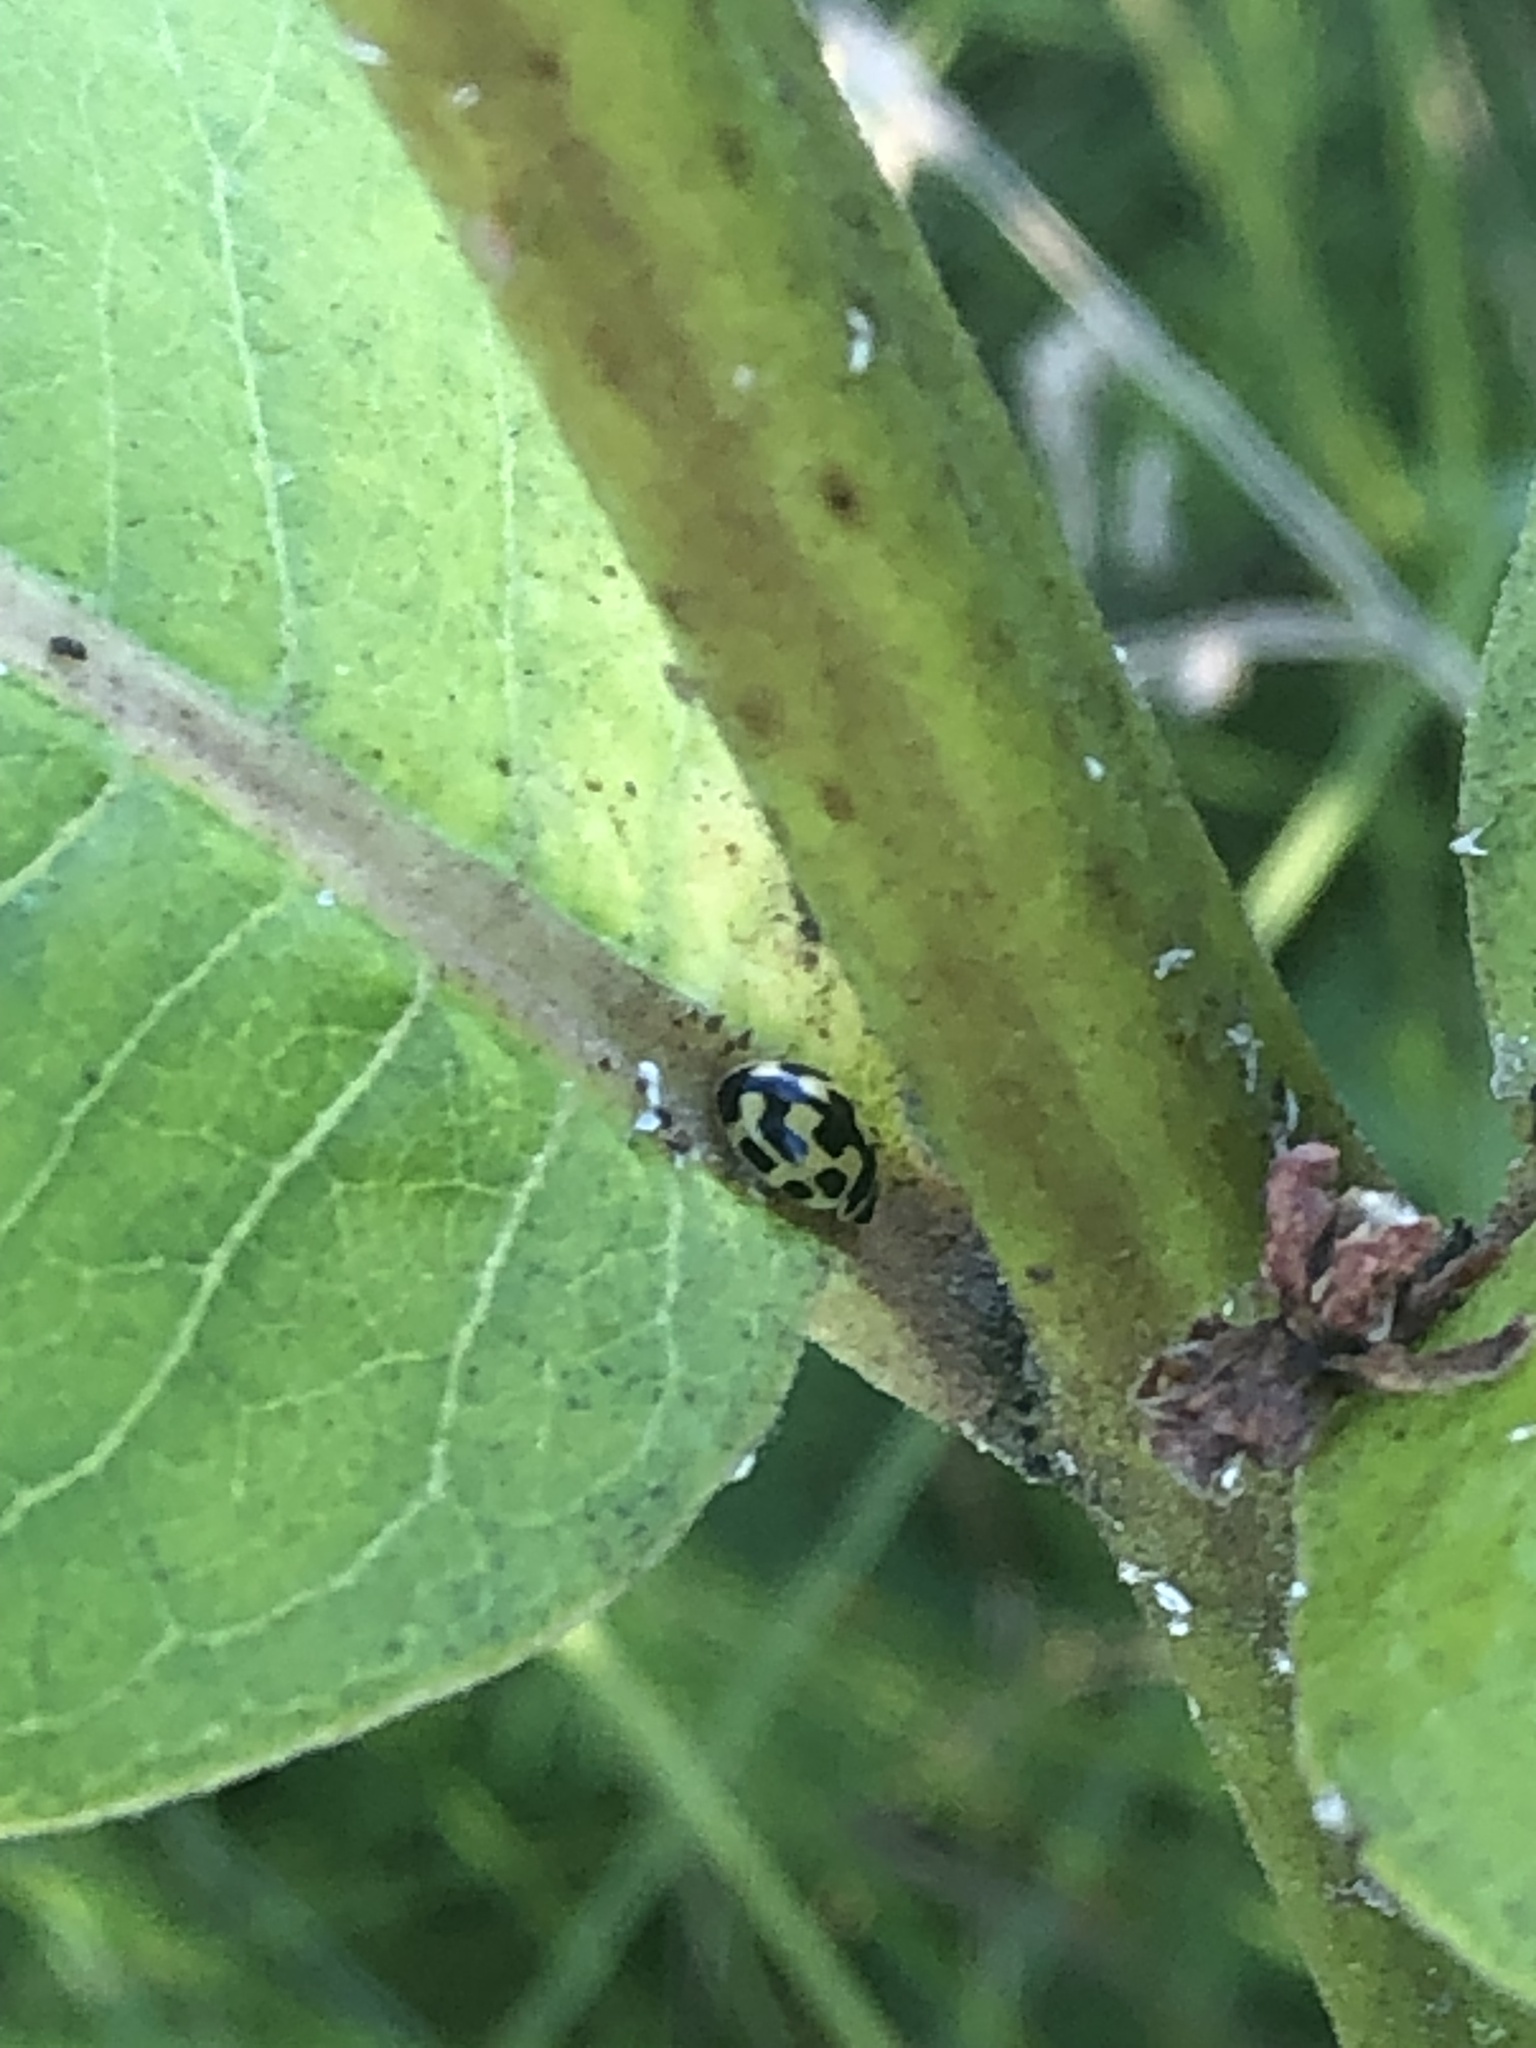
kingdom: Animalia
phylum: Arthropoda
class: Insecta
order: Coleoptera
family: Coccinellidae
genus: Propylaea
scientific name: Propylaea quatuordecimpunctata
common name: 14-spotted ladybird beetle
